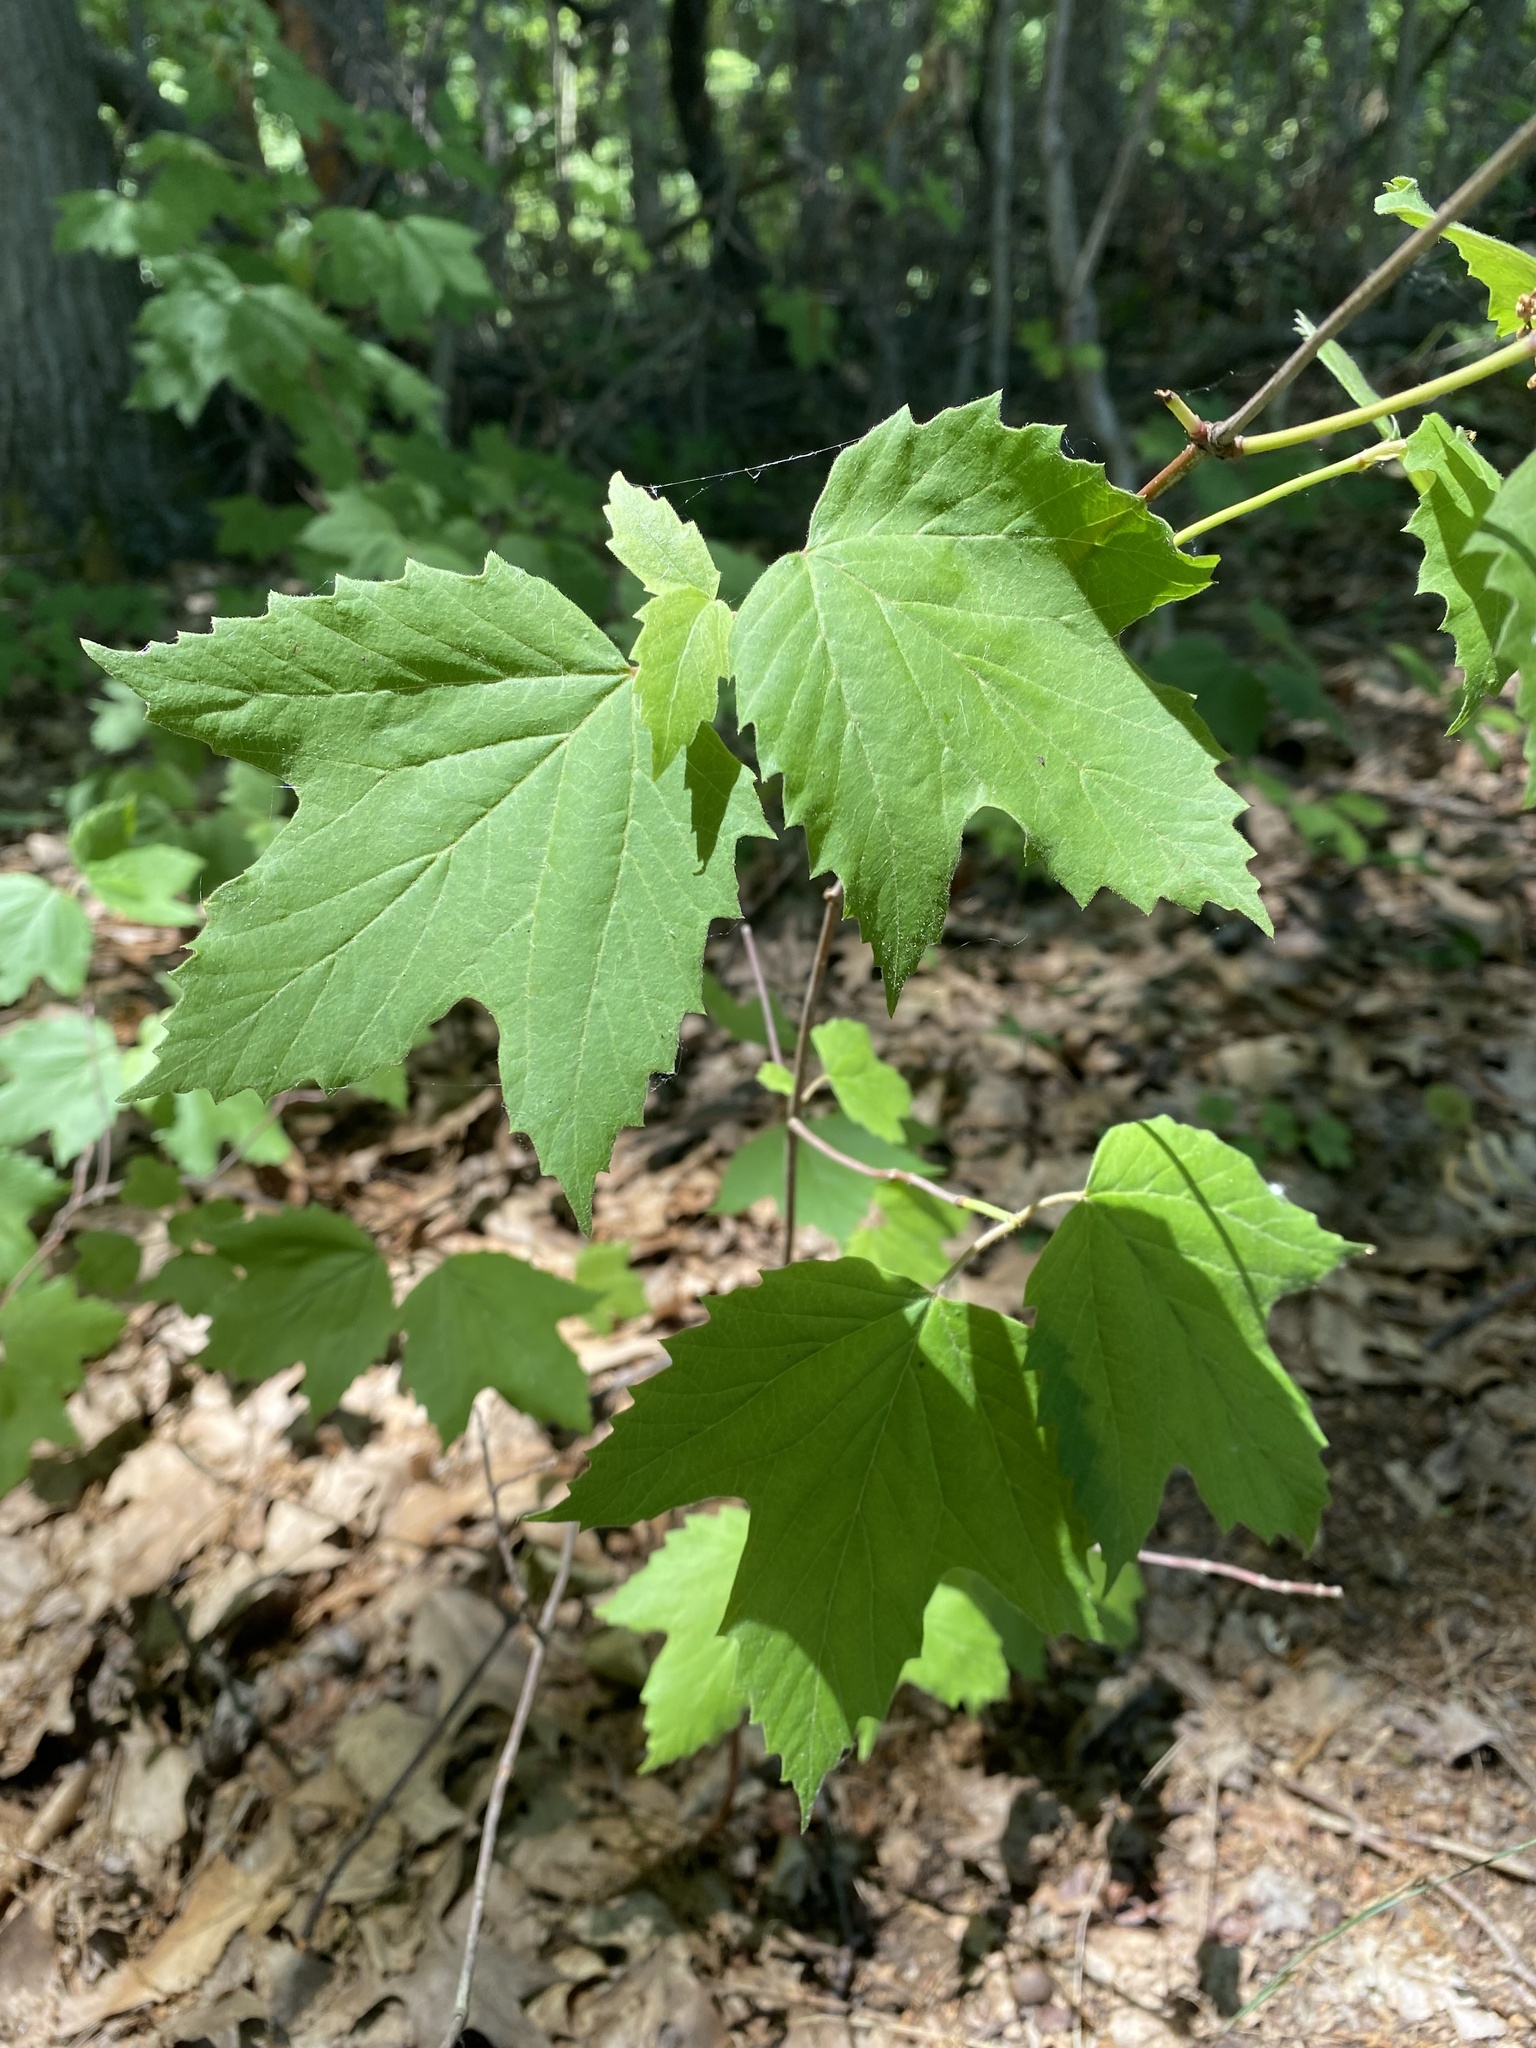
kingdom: Plantae
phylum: Tracheophyta
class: Magnoliopsida
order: Dipsacales
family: Viburnaceae
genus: Viburnum
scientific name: Viburnum acerifolium
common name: Dockmackie
